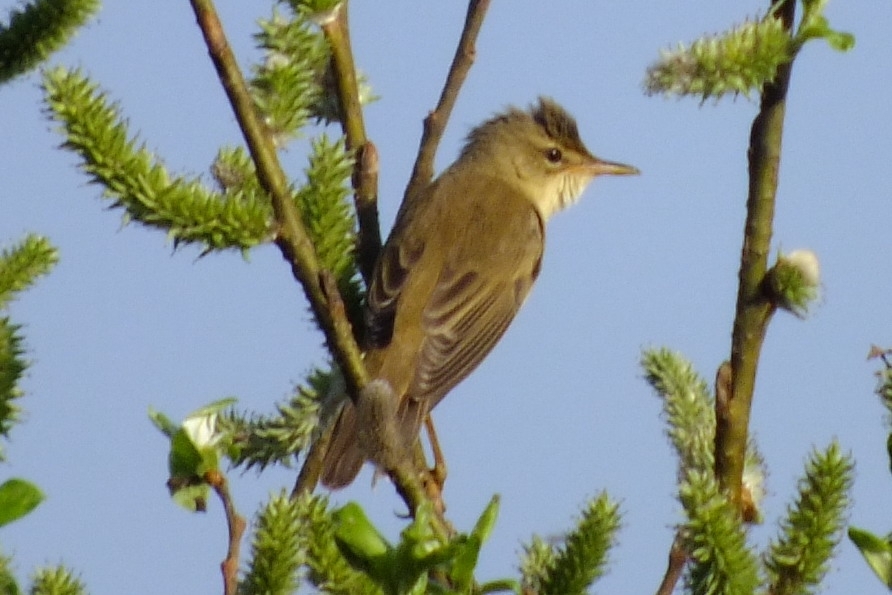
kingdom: Animalia
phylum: Chordata
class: Aves
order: Passeriformes
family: Acrocephalidae
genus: Acrocephalus
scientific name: Acrocephalus palustris
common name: Marsh warbler
